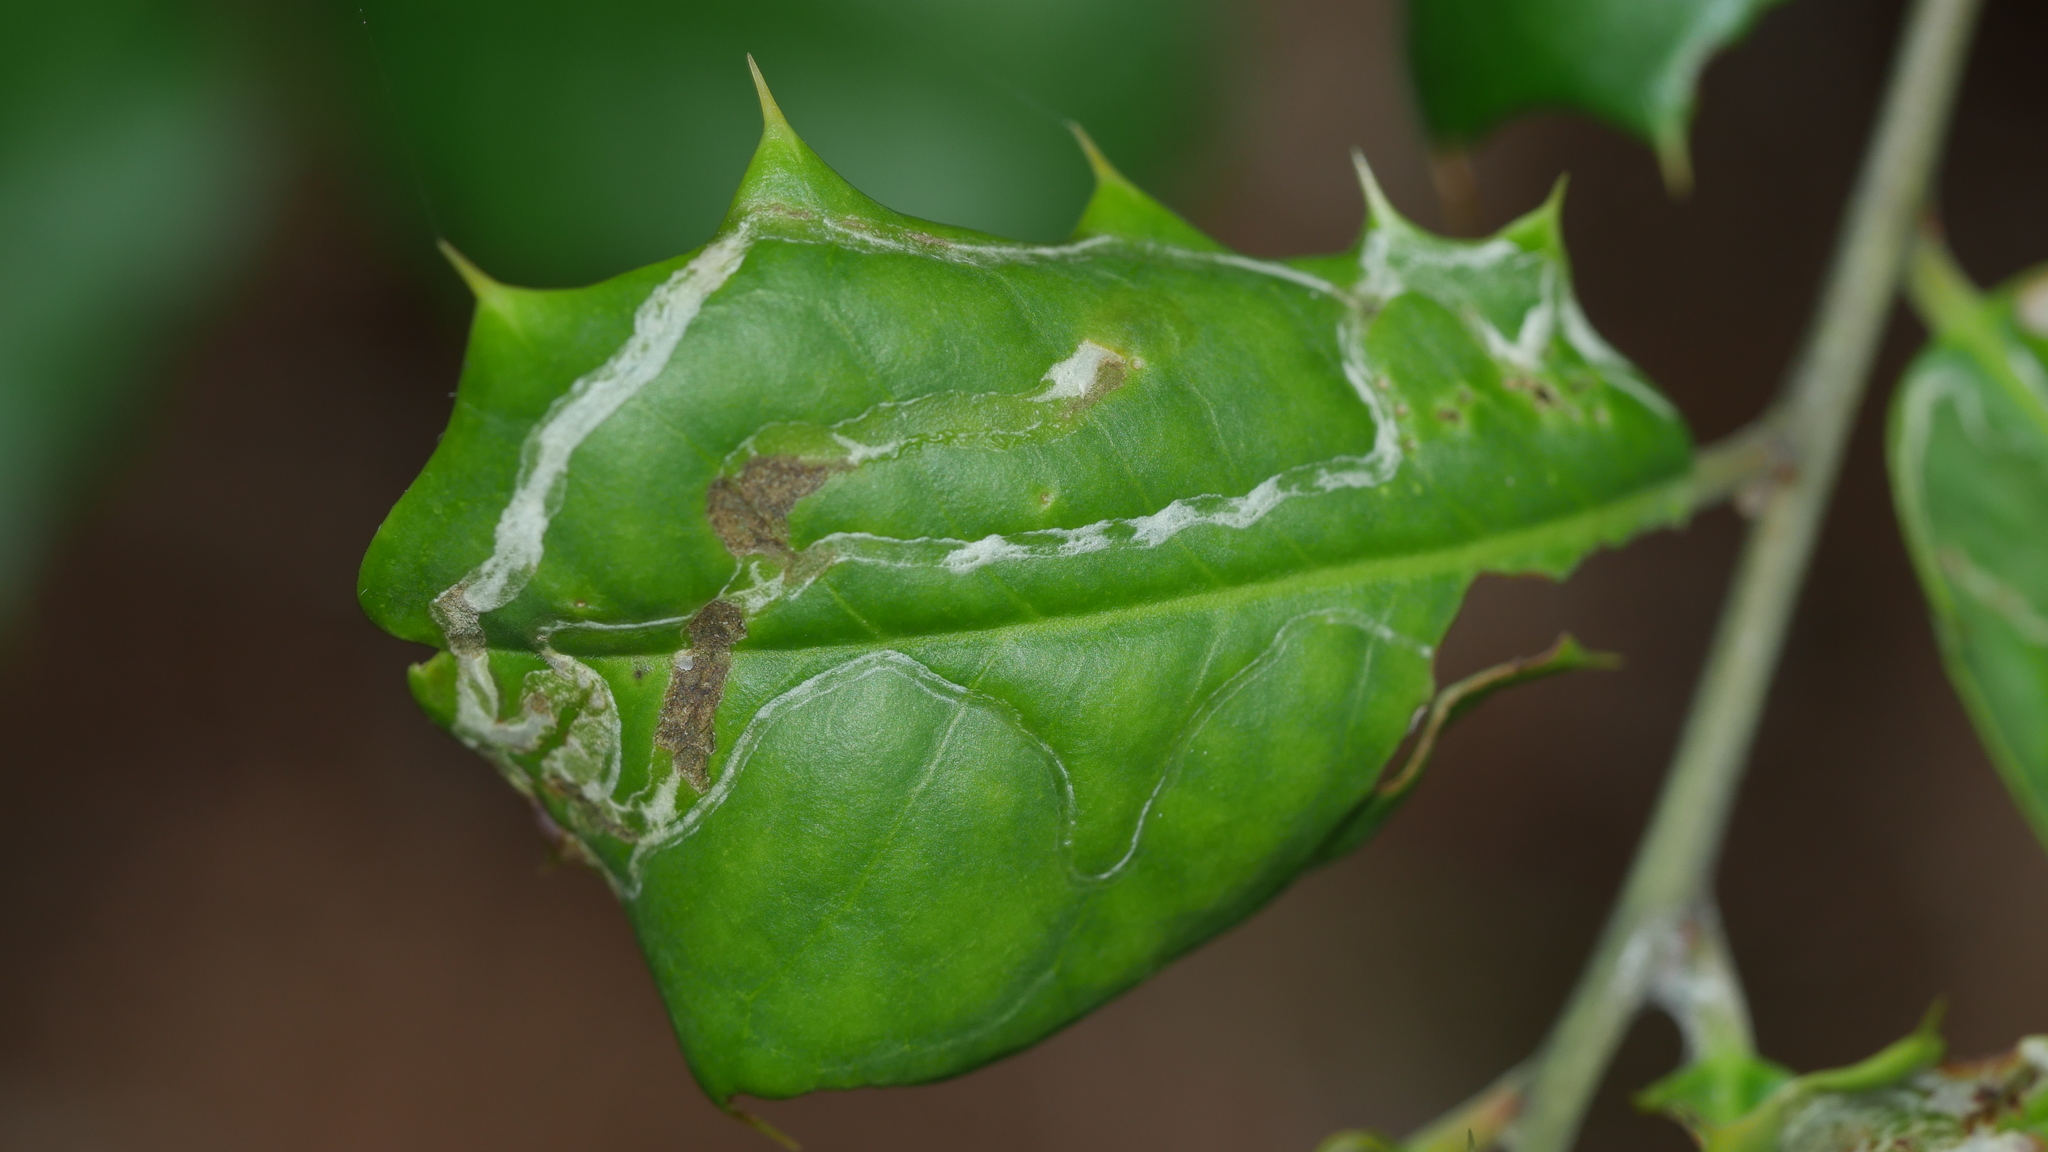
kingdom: Animalia
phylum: Arthropoda
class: Insecta
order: Diptera
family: Agromyzidae
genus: Phytomyza
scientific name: Phytomyza opacae
